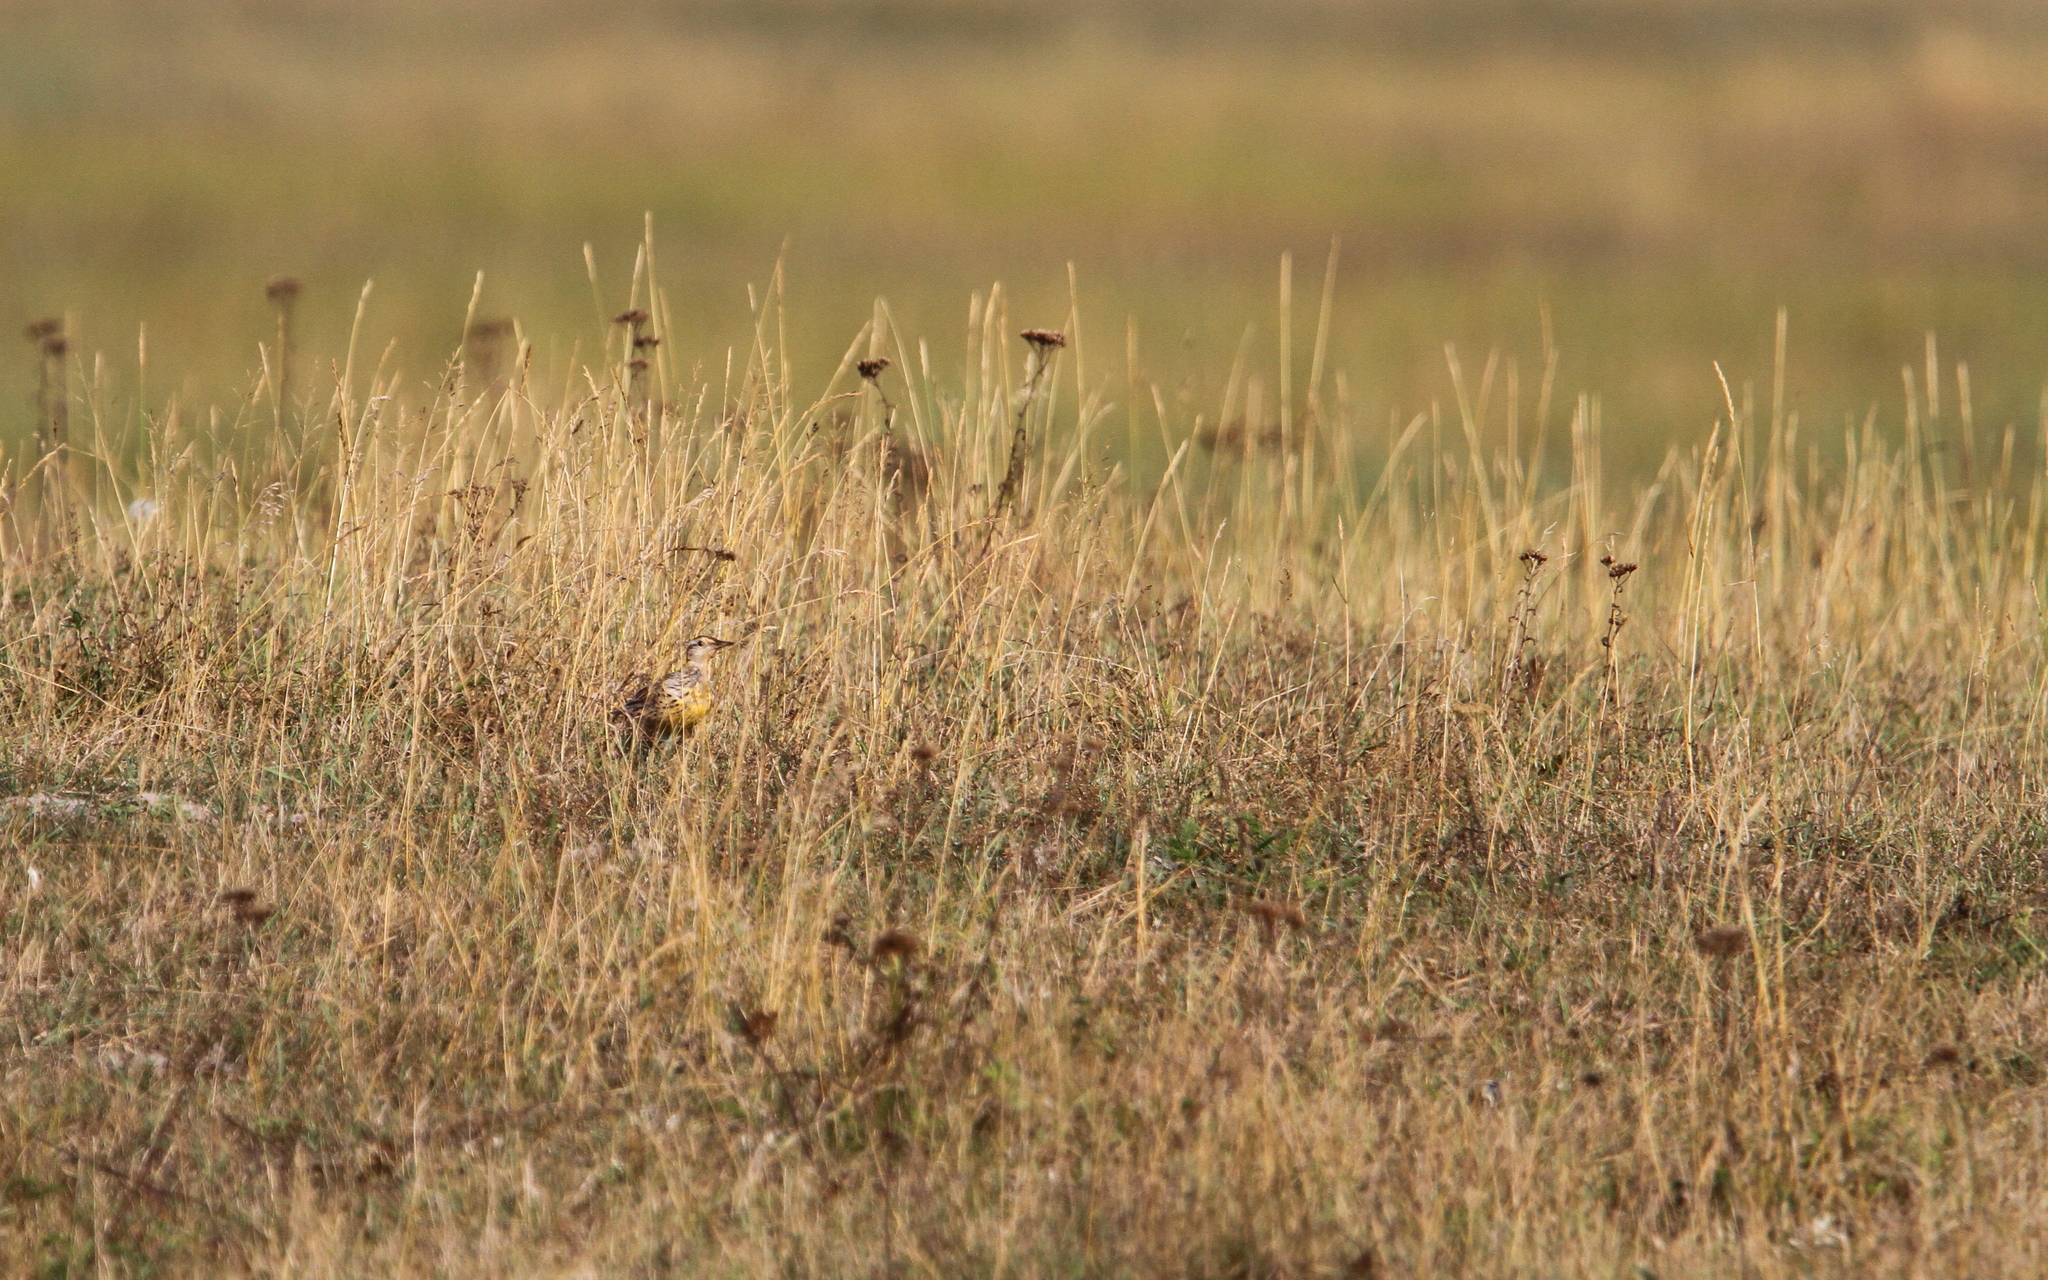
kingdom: Animalia
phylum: Chordata
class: Aves
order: Passeriformes
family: Icteridae
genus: Sturnella
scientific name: Sturnella neglecta
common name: Western meadowlark
